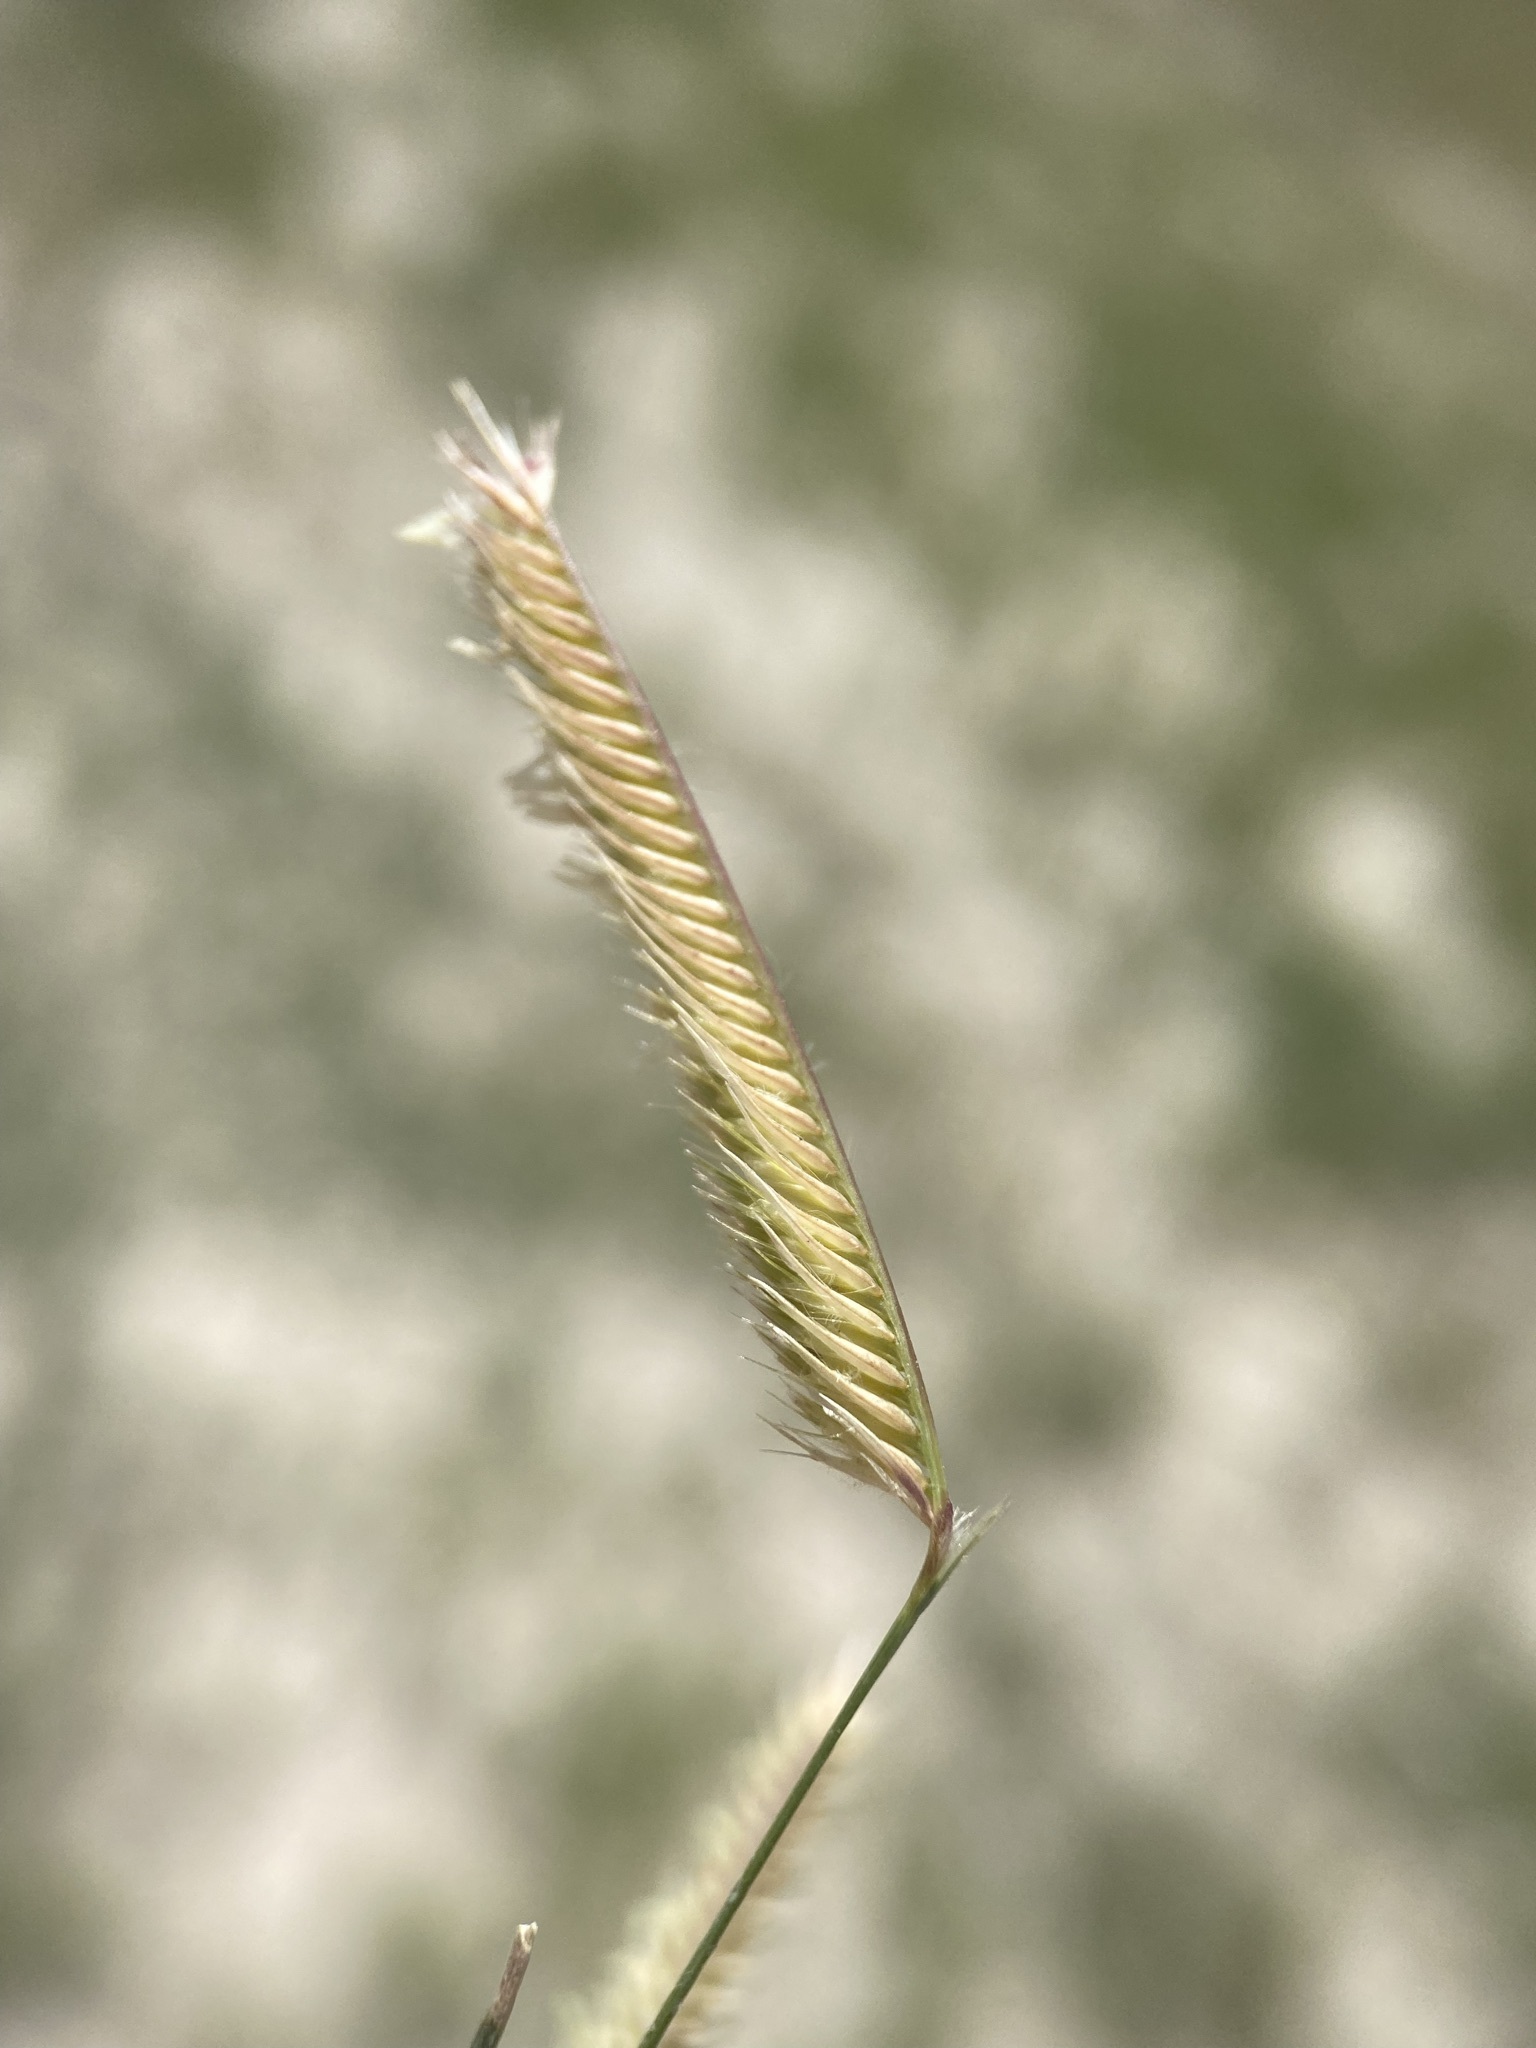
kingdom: Plantae
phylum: Tracheophyta
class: Liliopsida
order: Poales
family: Poaceae
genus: Bouteloua
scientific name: Bouteloua gracilis
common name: Blue grama
